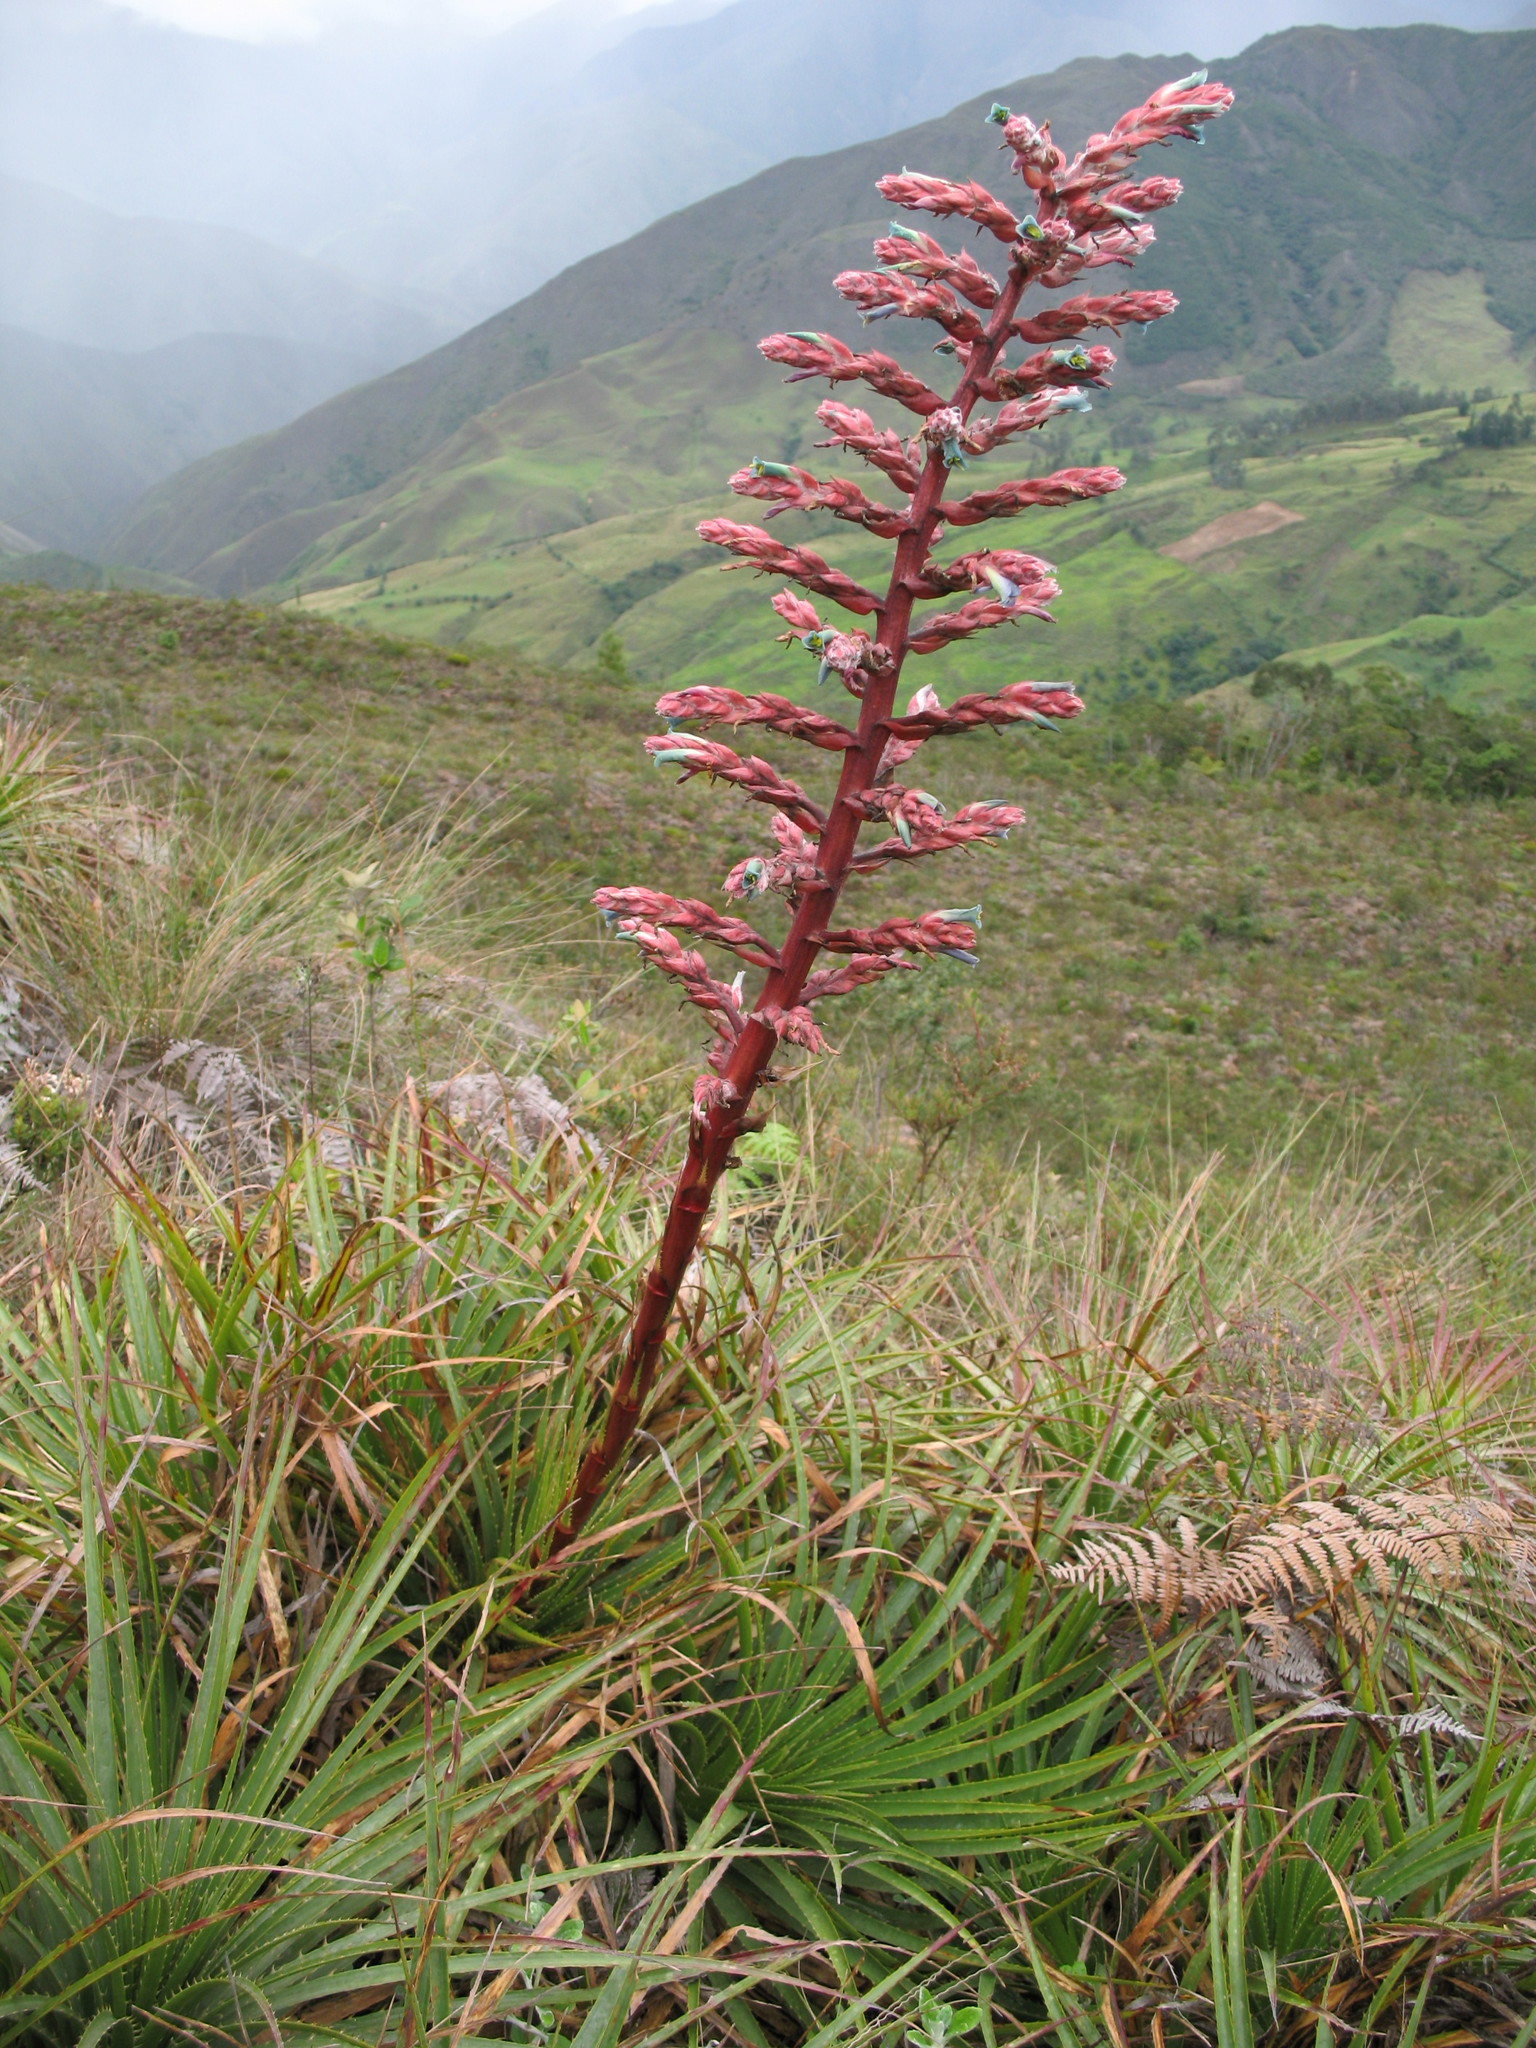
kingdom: Plantae
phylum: Tracheophyta
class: Liliopsida
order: Poales
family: Bromeliaceae
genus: Puya
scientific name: Puya parviflora
